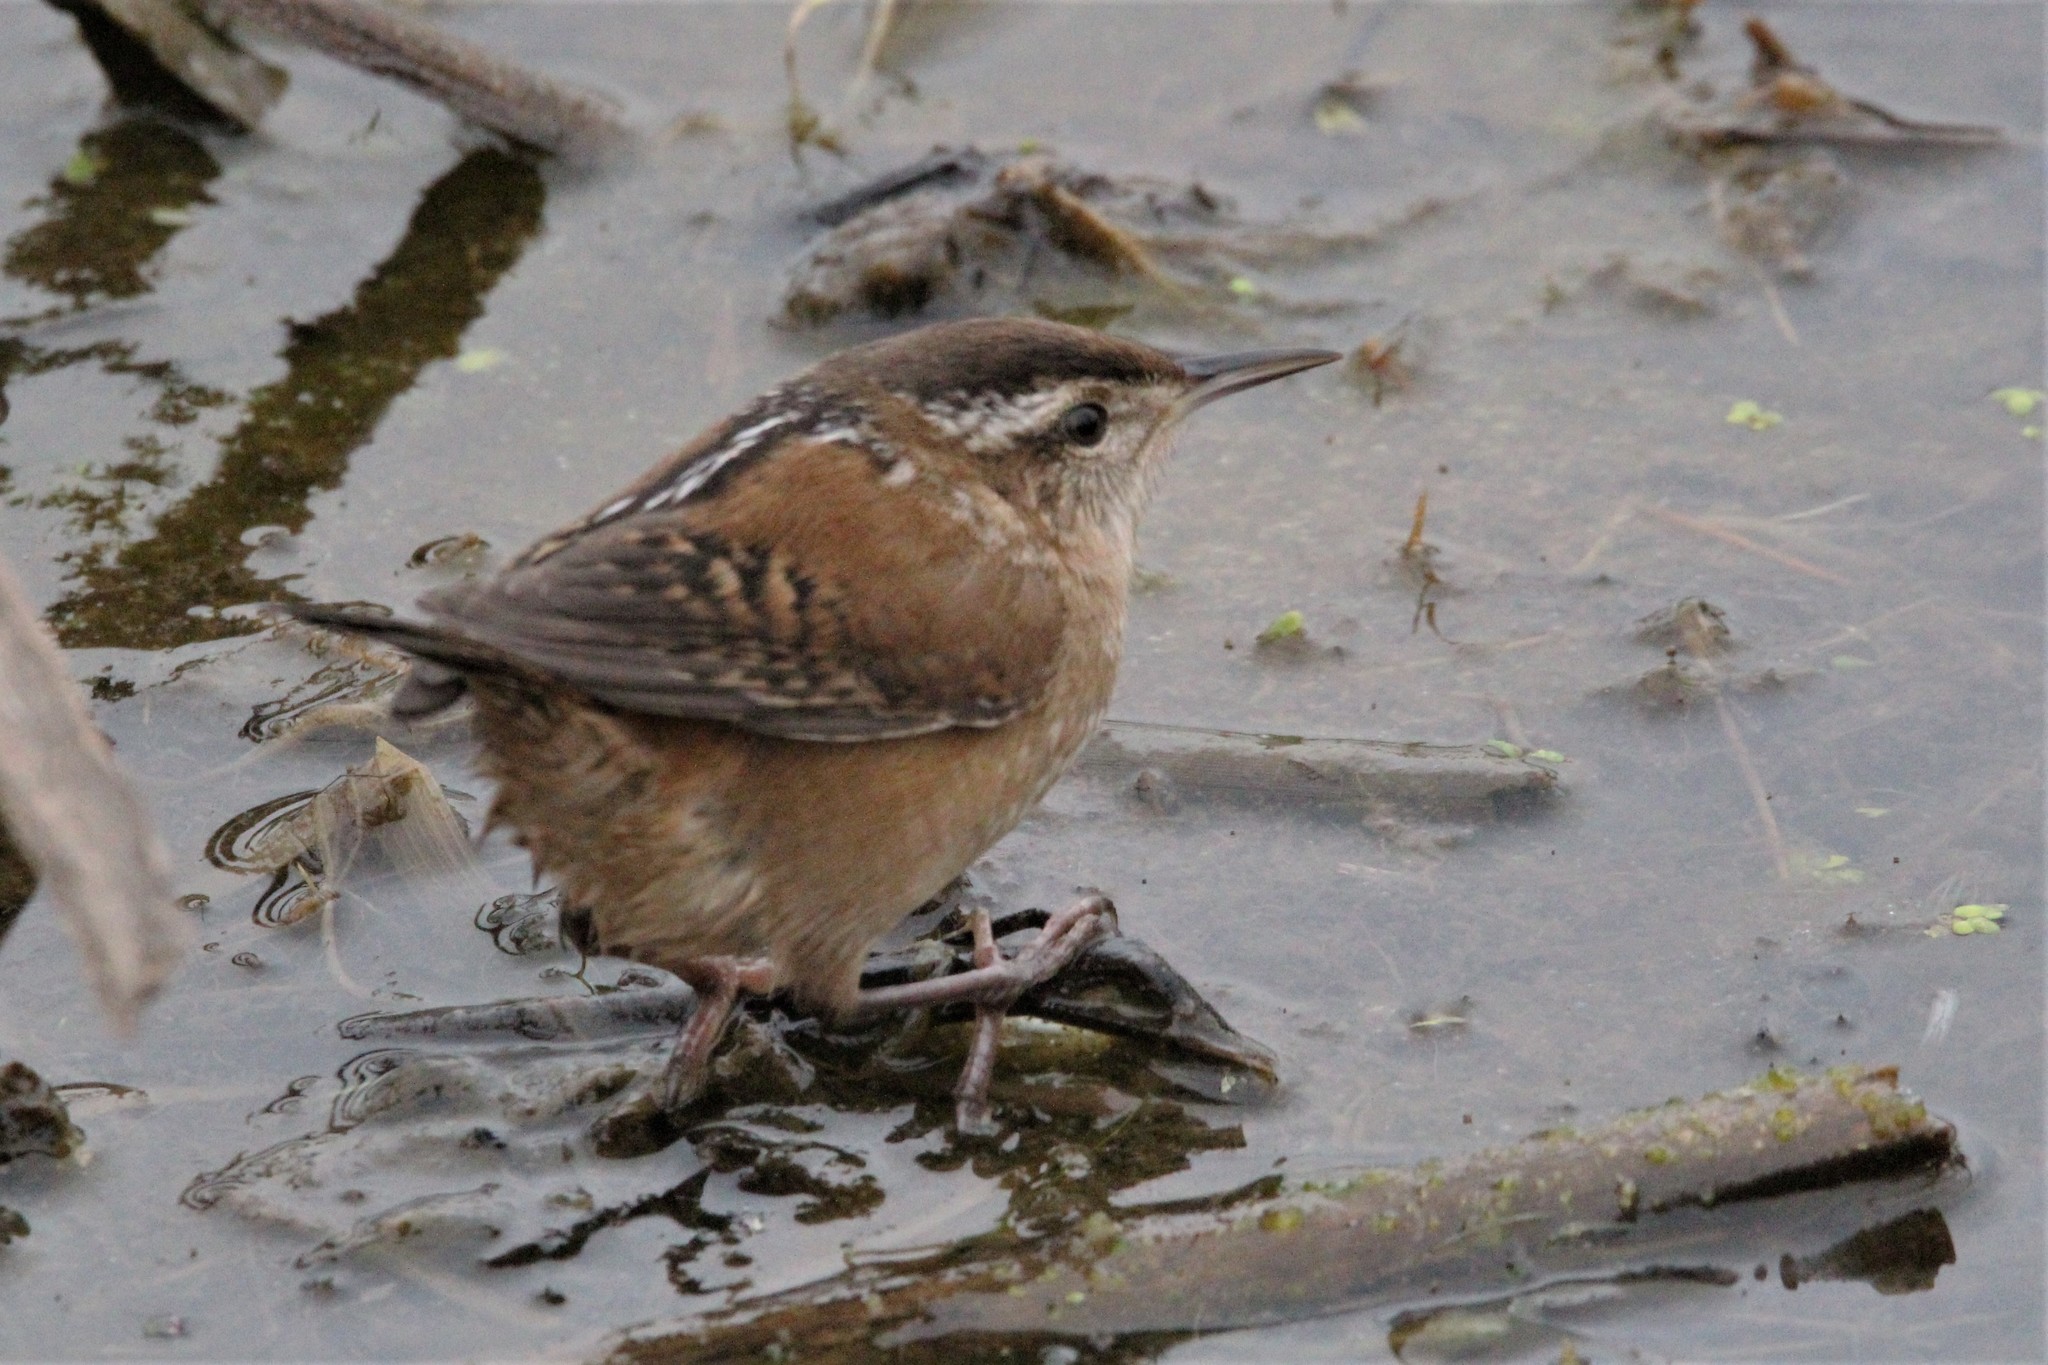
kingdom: Animalia
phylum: Chordata
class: Aves
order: Passeriformes
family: Troglodytidae
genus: Cistothorus
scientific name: Cistothorus palustris
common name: Marsh wren
